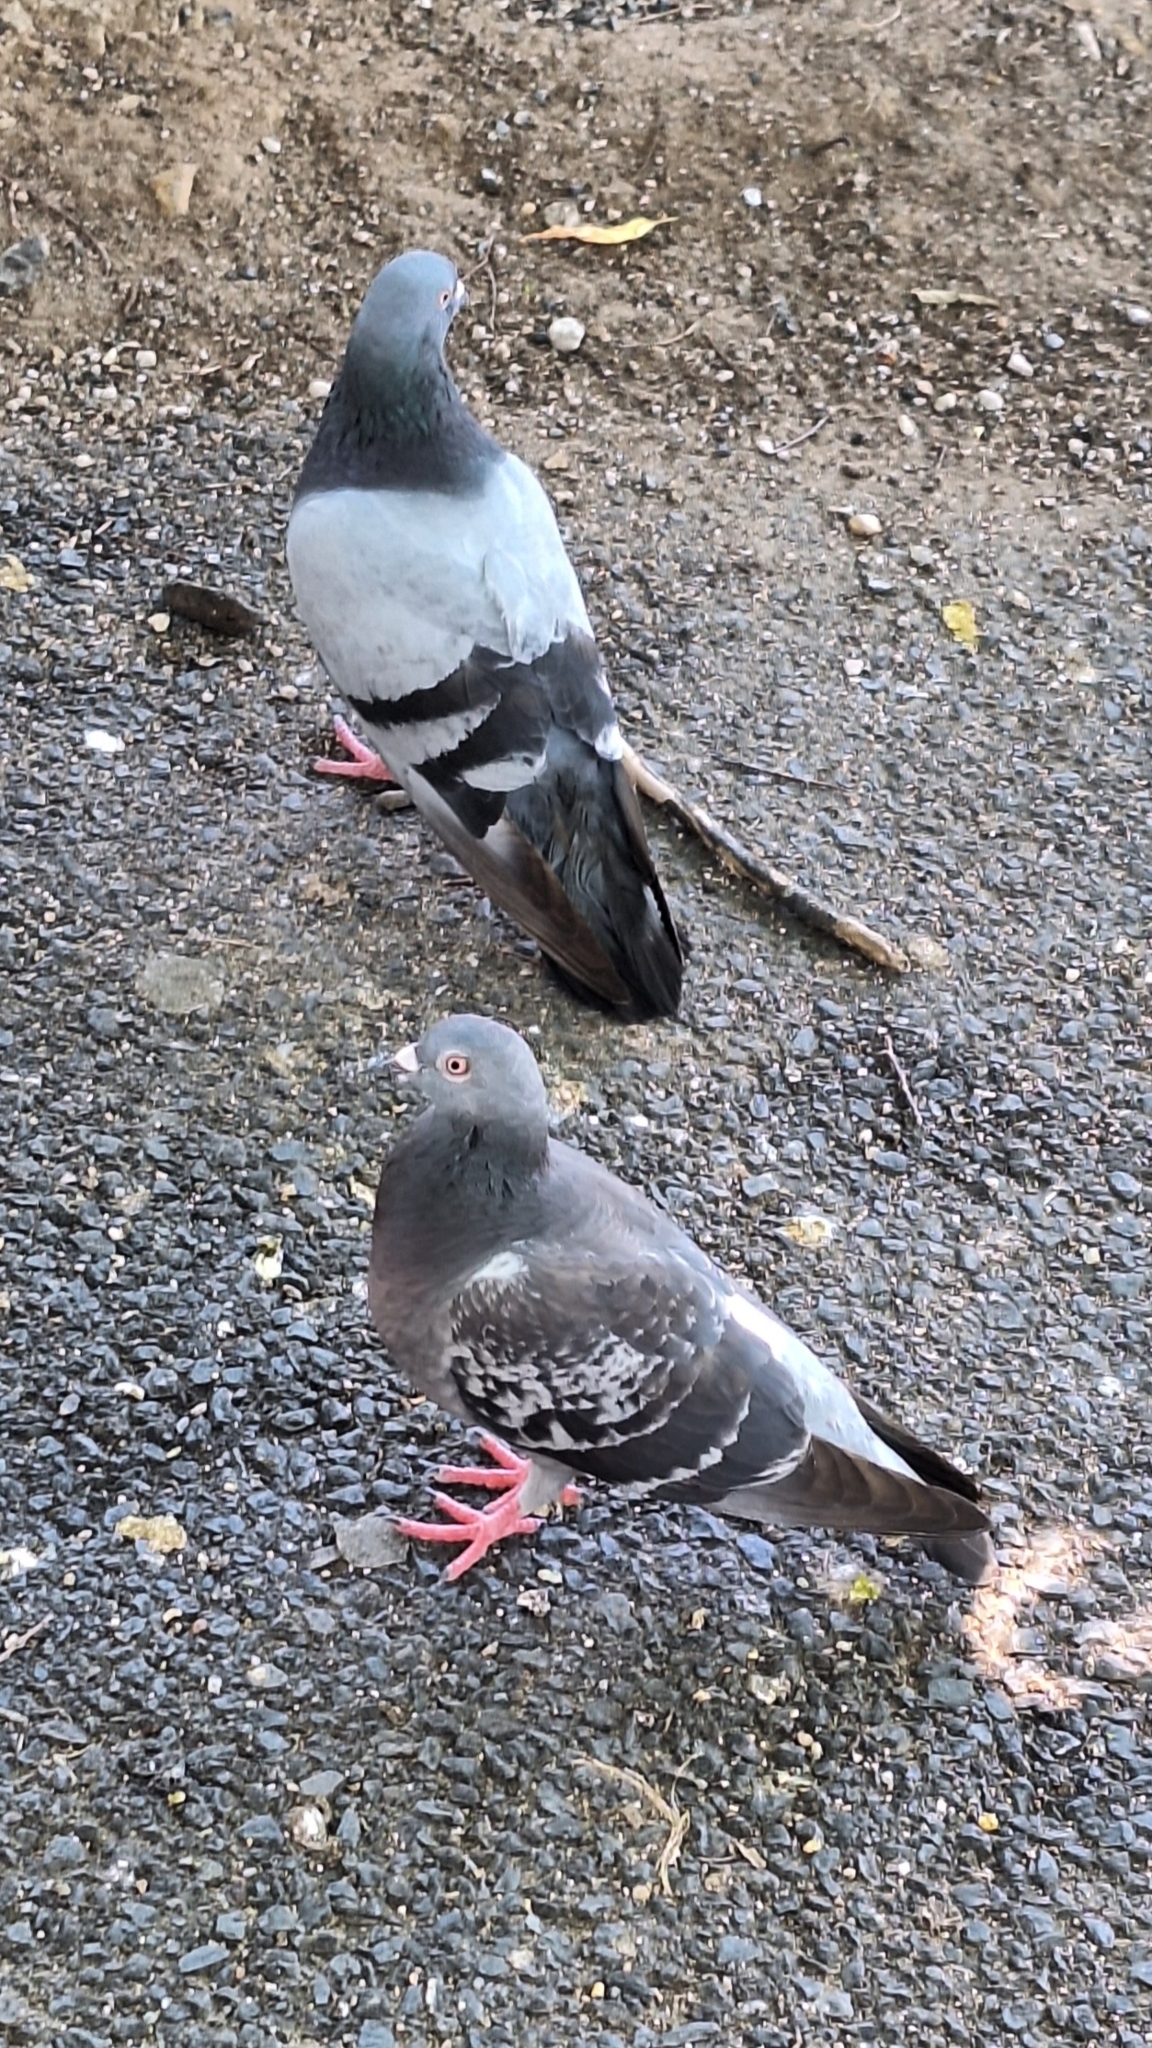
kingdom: Animalia
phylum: Chordata
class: Aves
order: Columbiformes
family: Columbidae
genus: Columba
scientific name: Columba livia
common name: Rock pigeon
